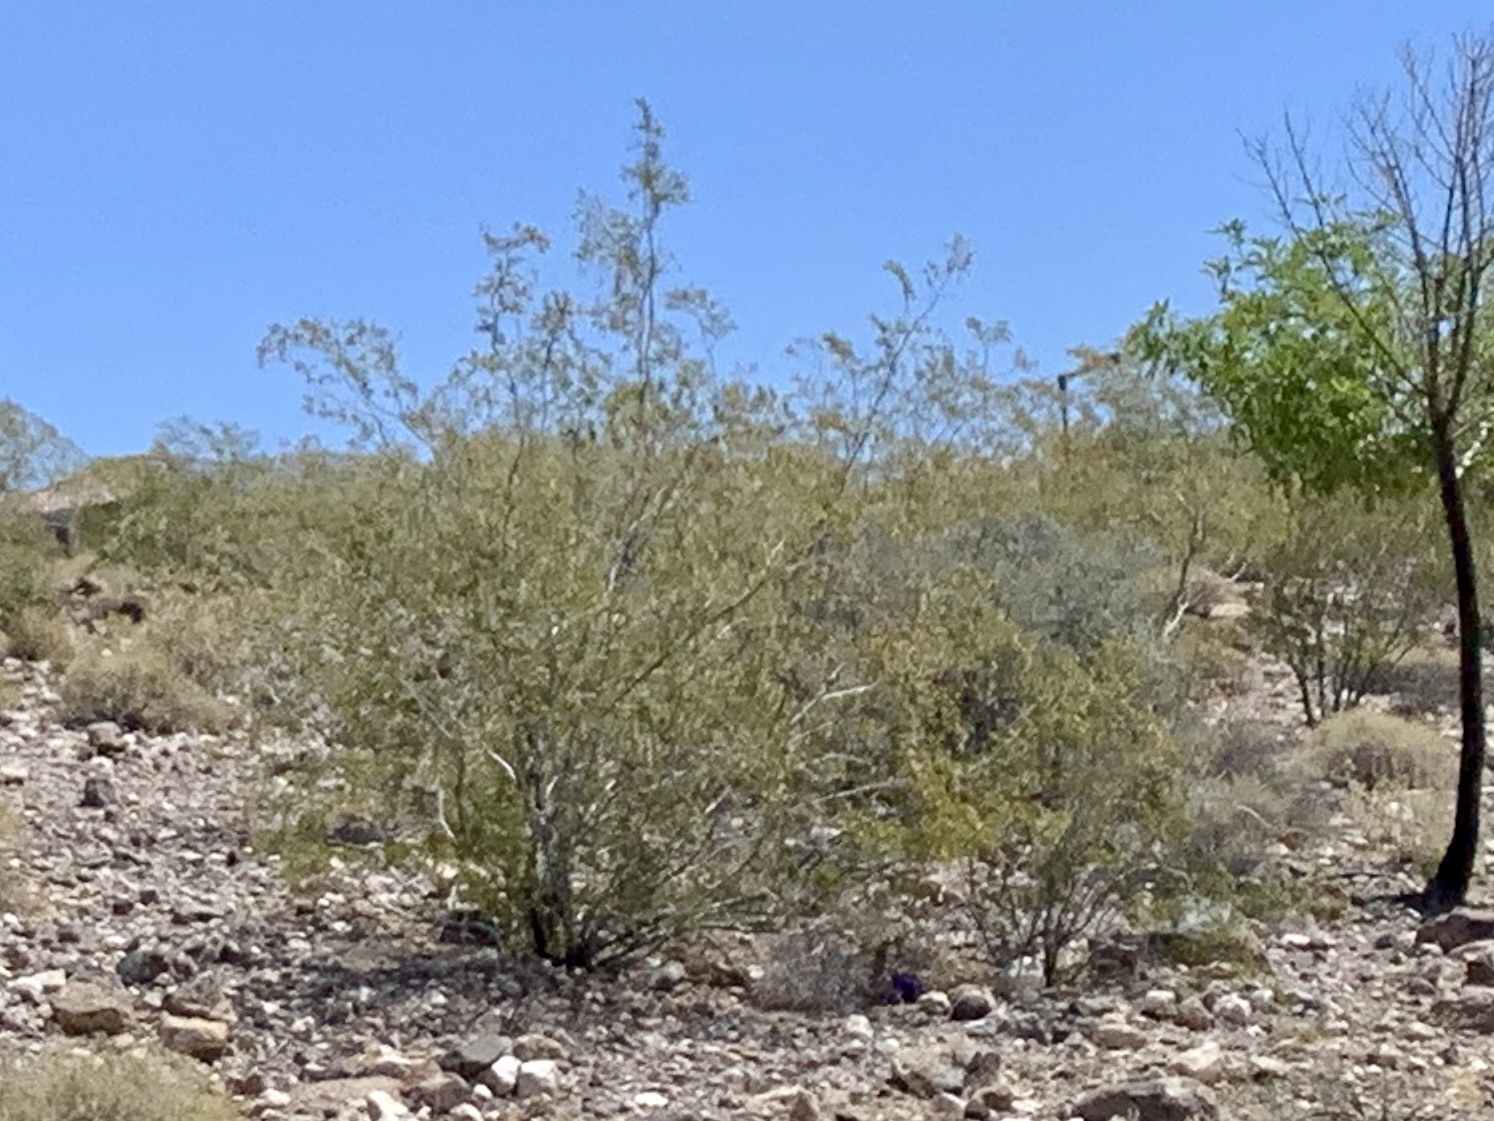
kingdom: Plantae
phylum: Tracheophyta
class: Magnoliopsida
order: Zygophyllales
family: Zygophyllaceae
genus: Larrea
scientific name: Larrea tridentata
